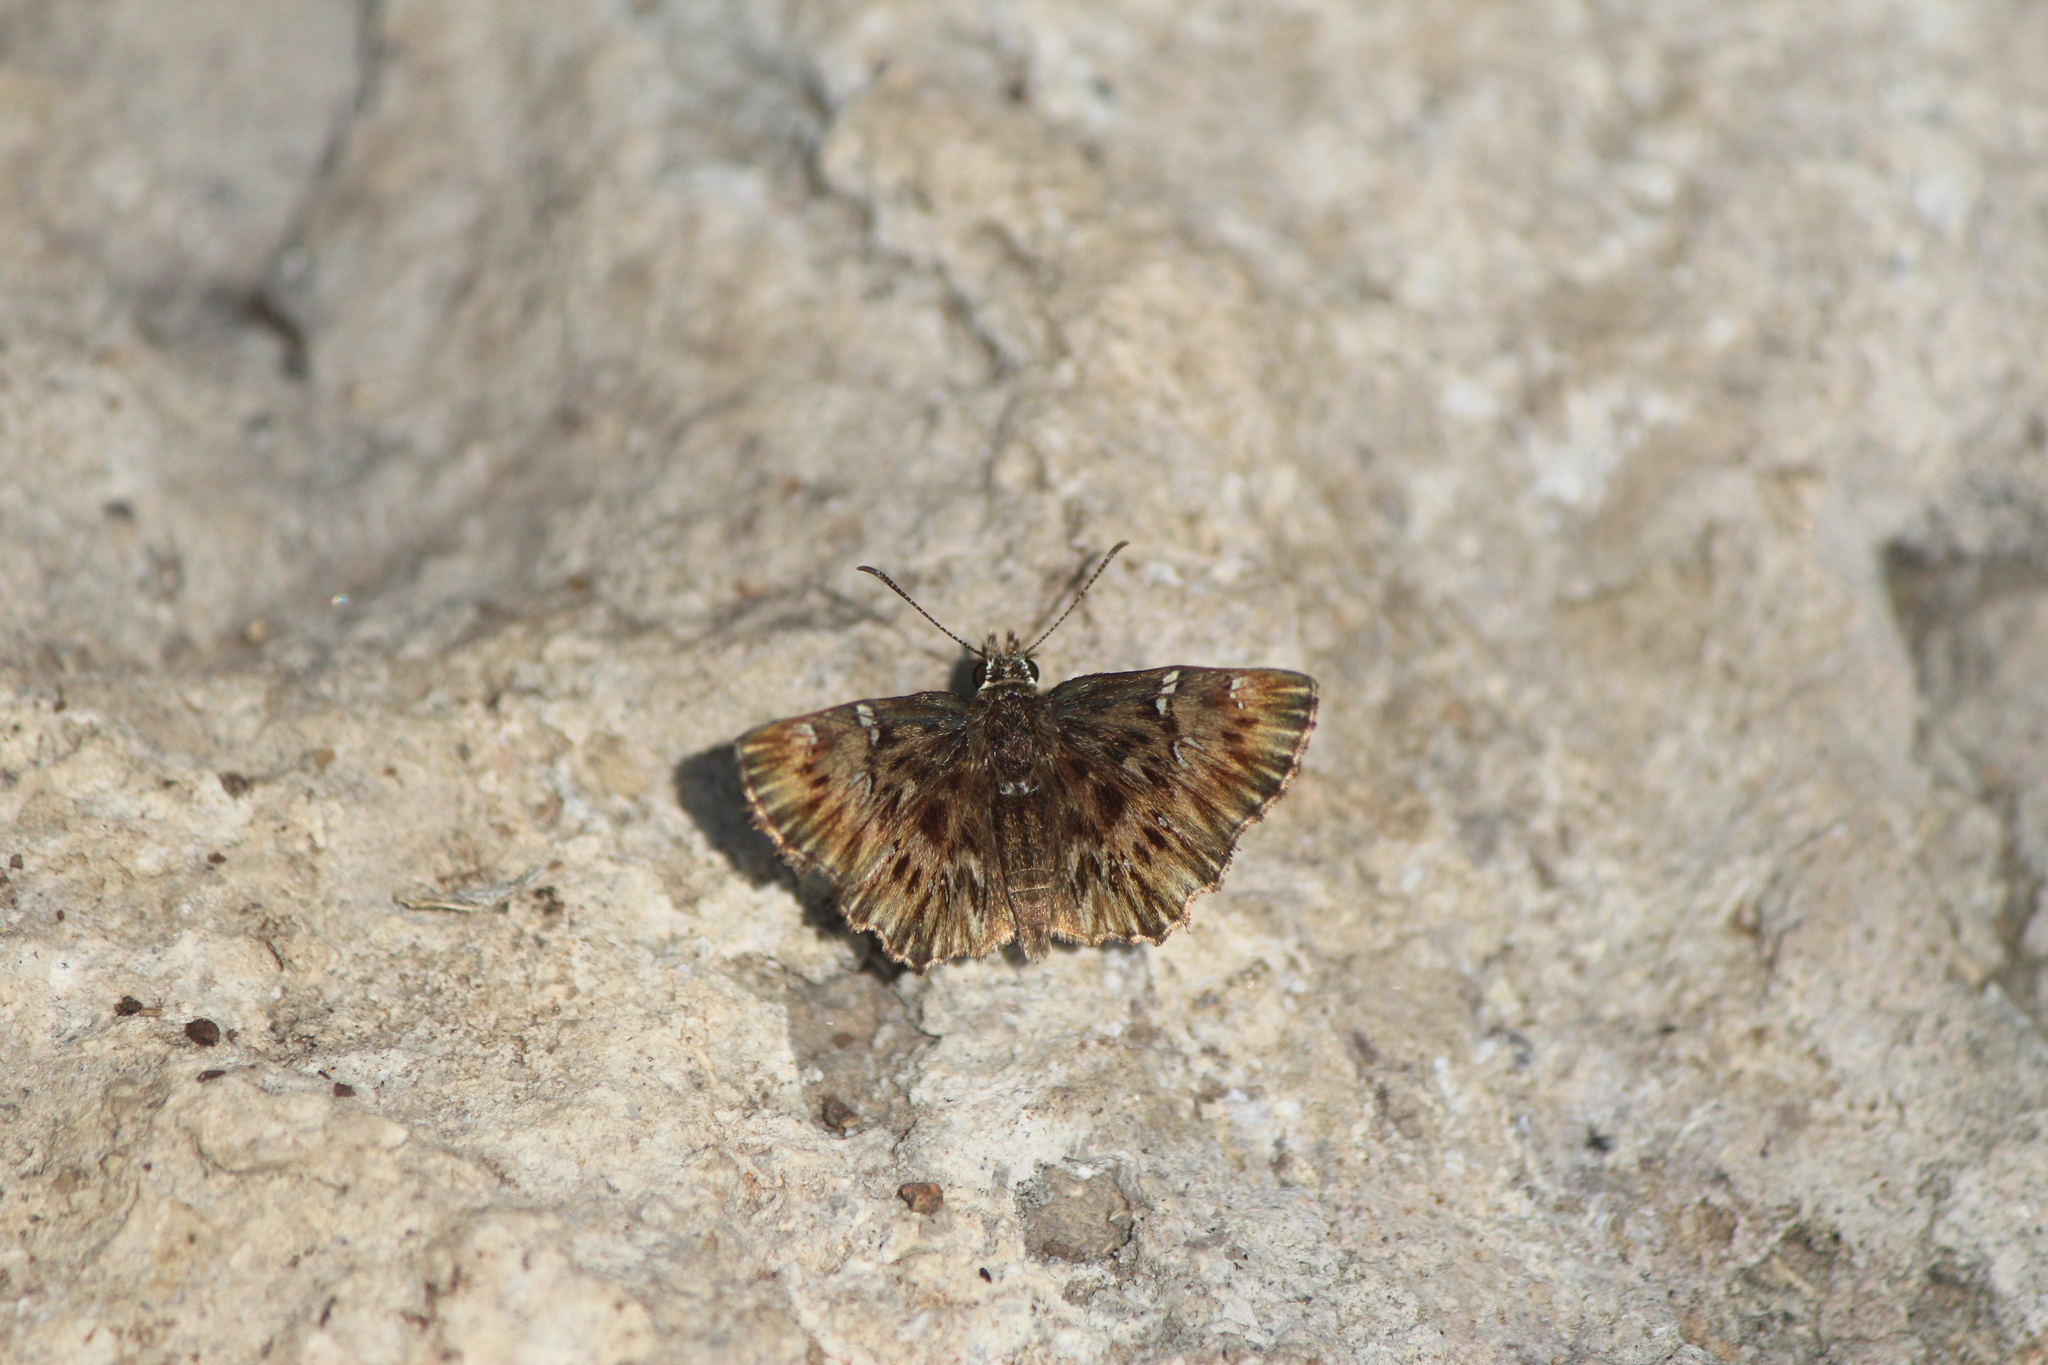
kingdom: Animalia
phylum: Arthropoda
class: Insecta
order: Lepidoptera
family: Hesperiidae
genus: Celotes
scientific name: Celotes spurcus
